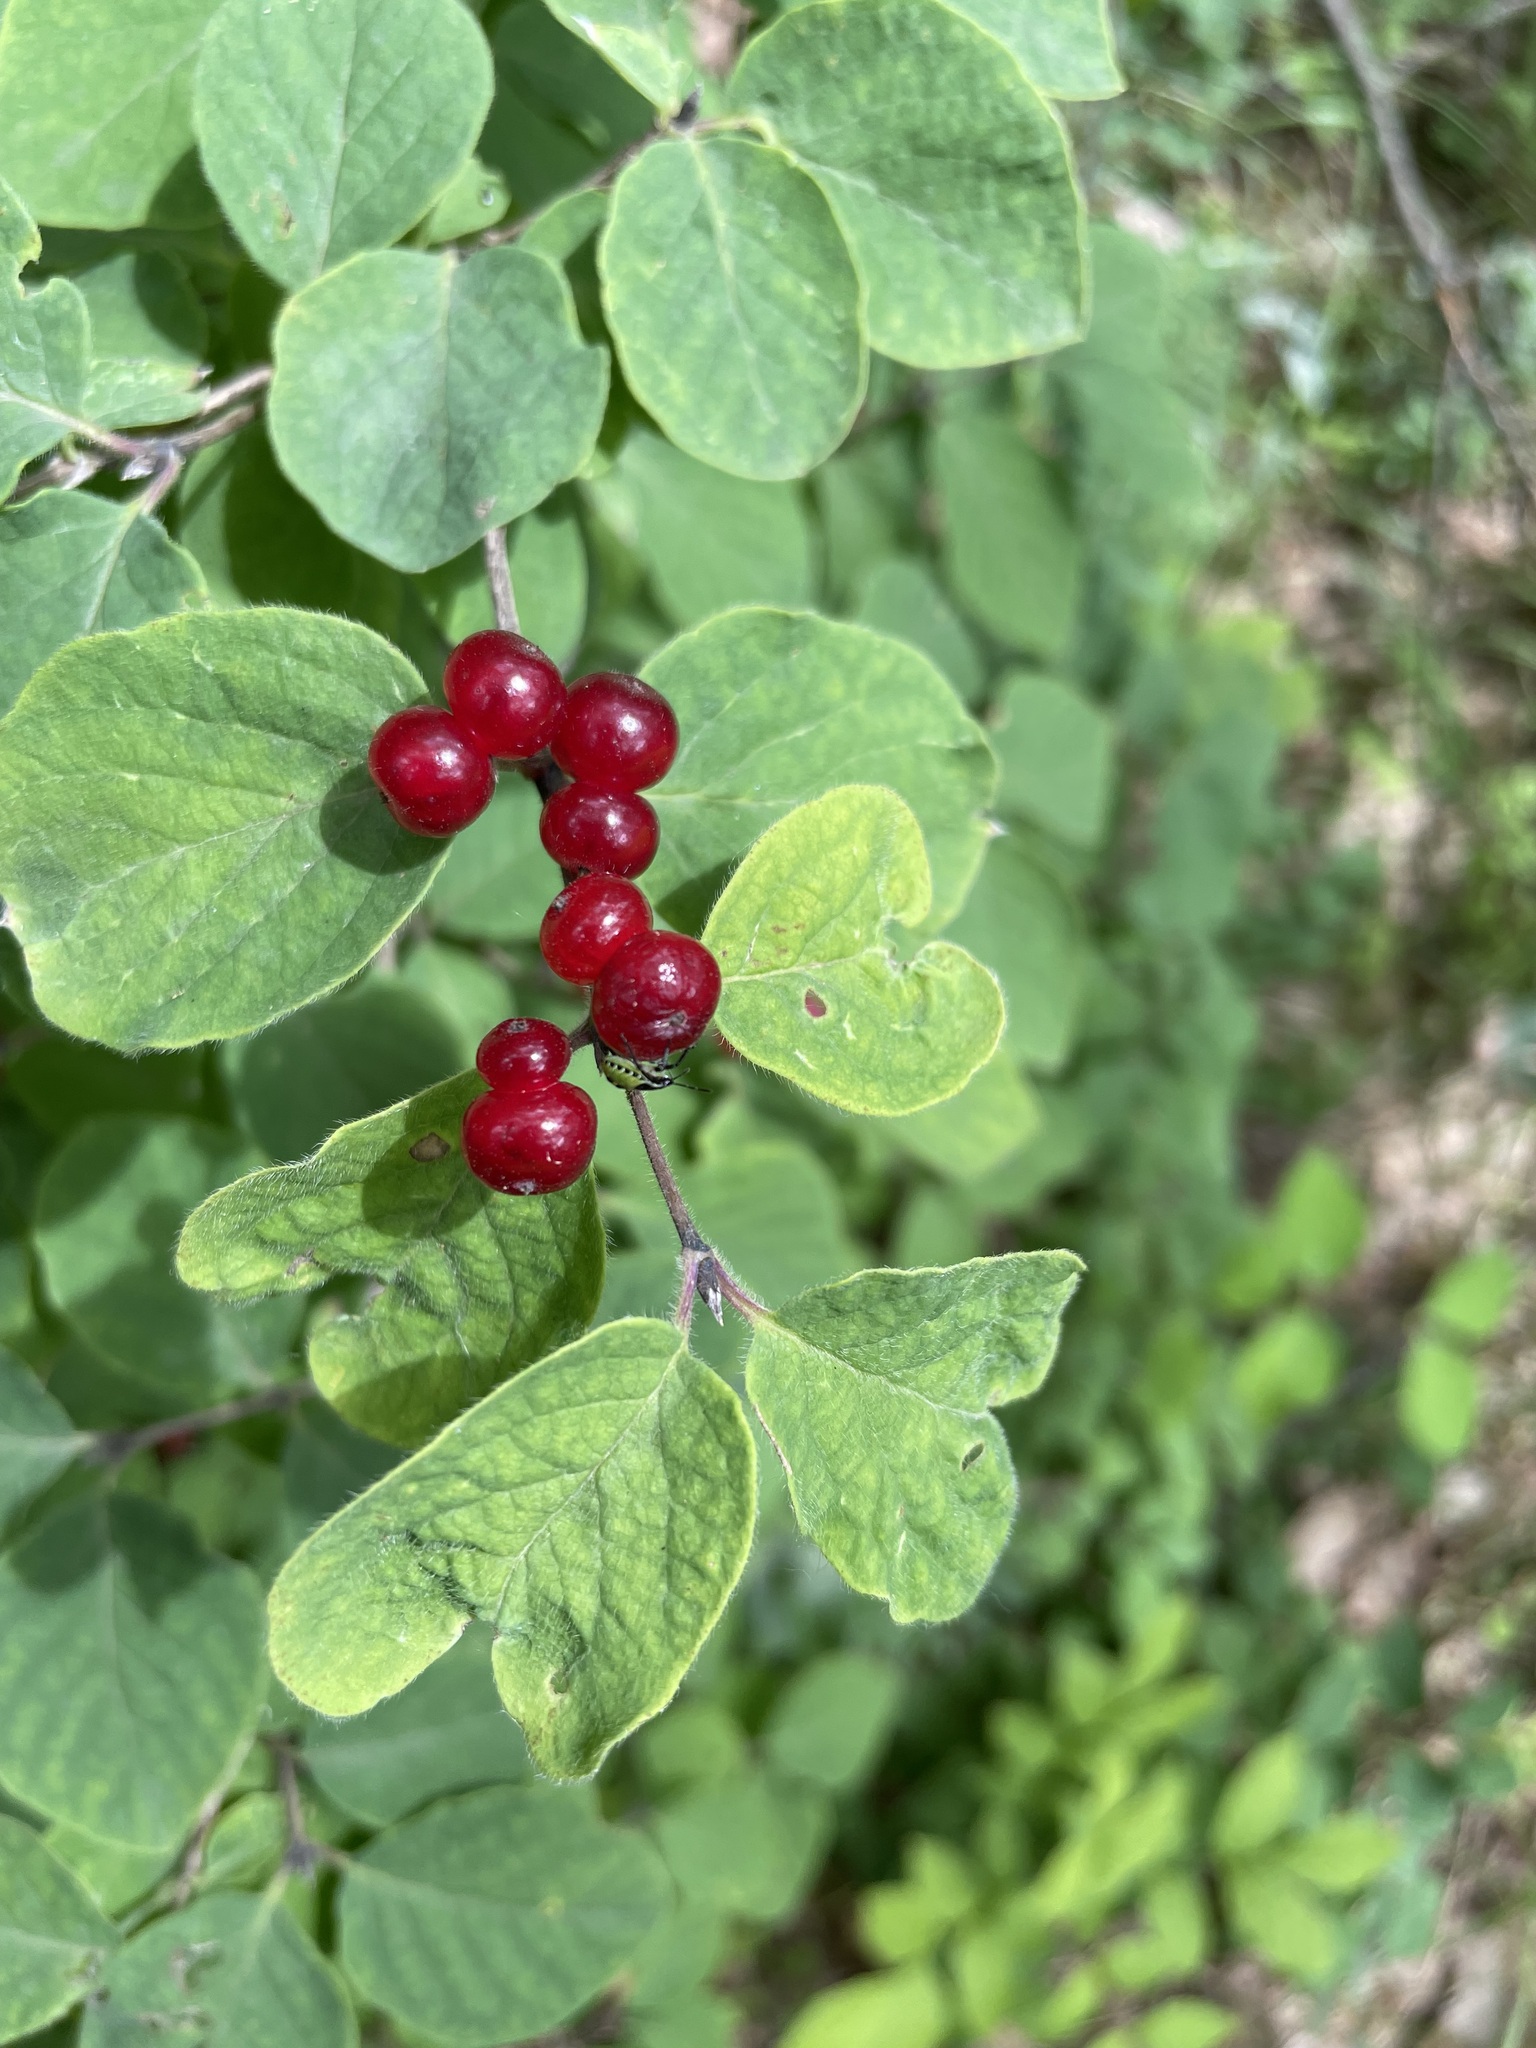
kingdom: Plantae
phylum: Tracheophyta
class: Magnoliopsida
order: Dipsacales
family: Caprifoliaceae
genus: Lonicera
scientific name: Lonicera xylosteum
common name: Fly honeysuckle
